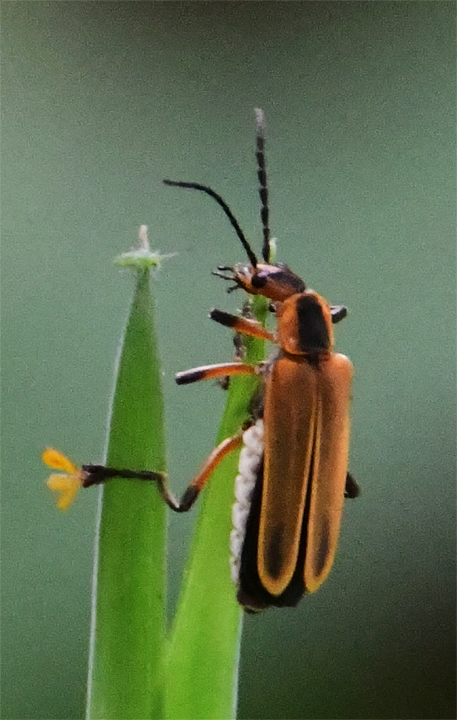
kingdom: Animalia
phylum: Arthropoda
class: Insecta
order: Coleoptera
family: Cantharidae
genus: Chauliognathus
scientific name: Chauliognathus marginatus
